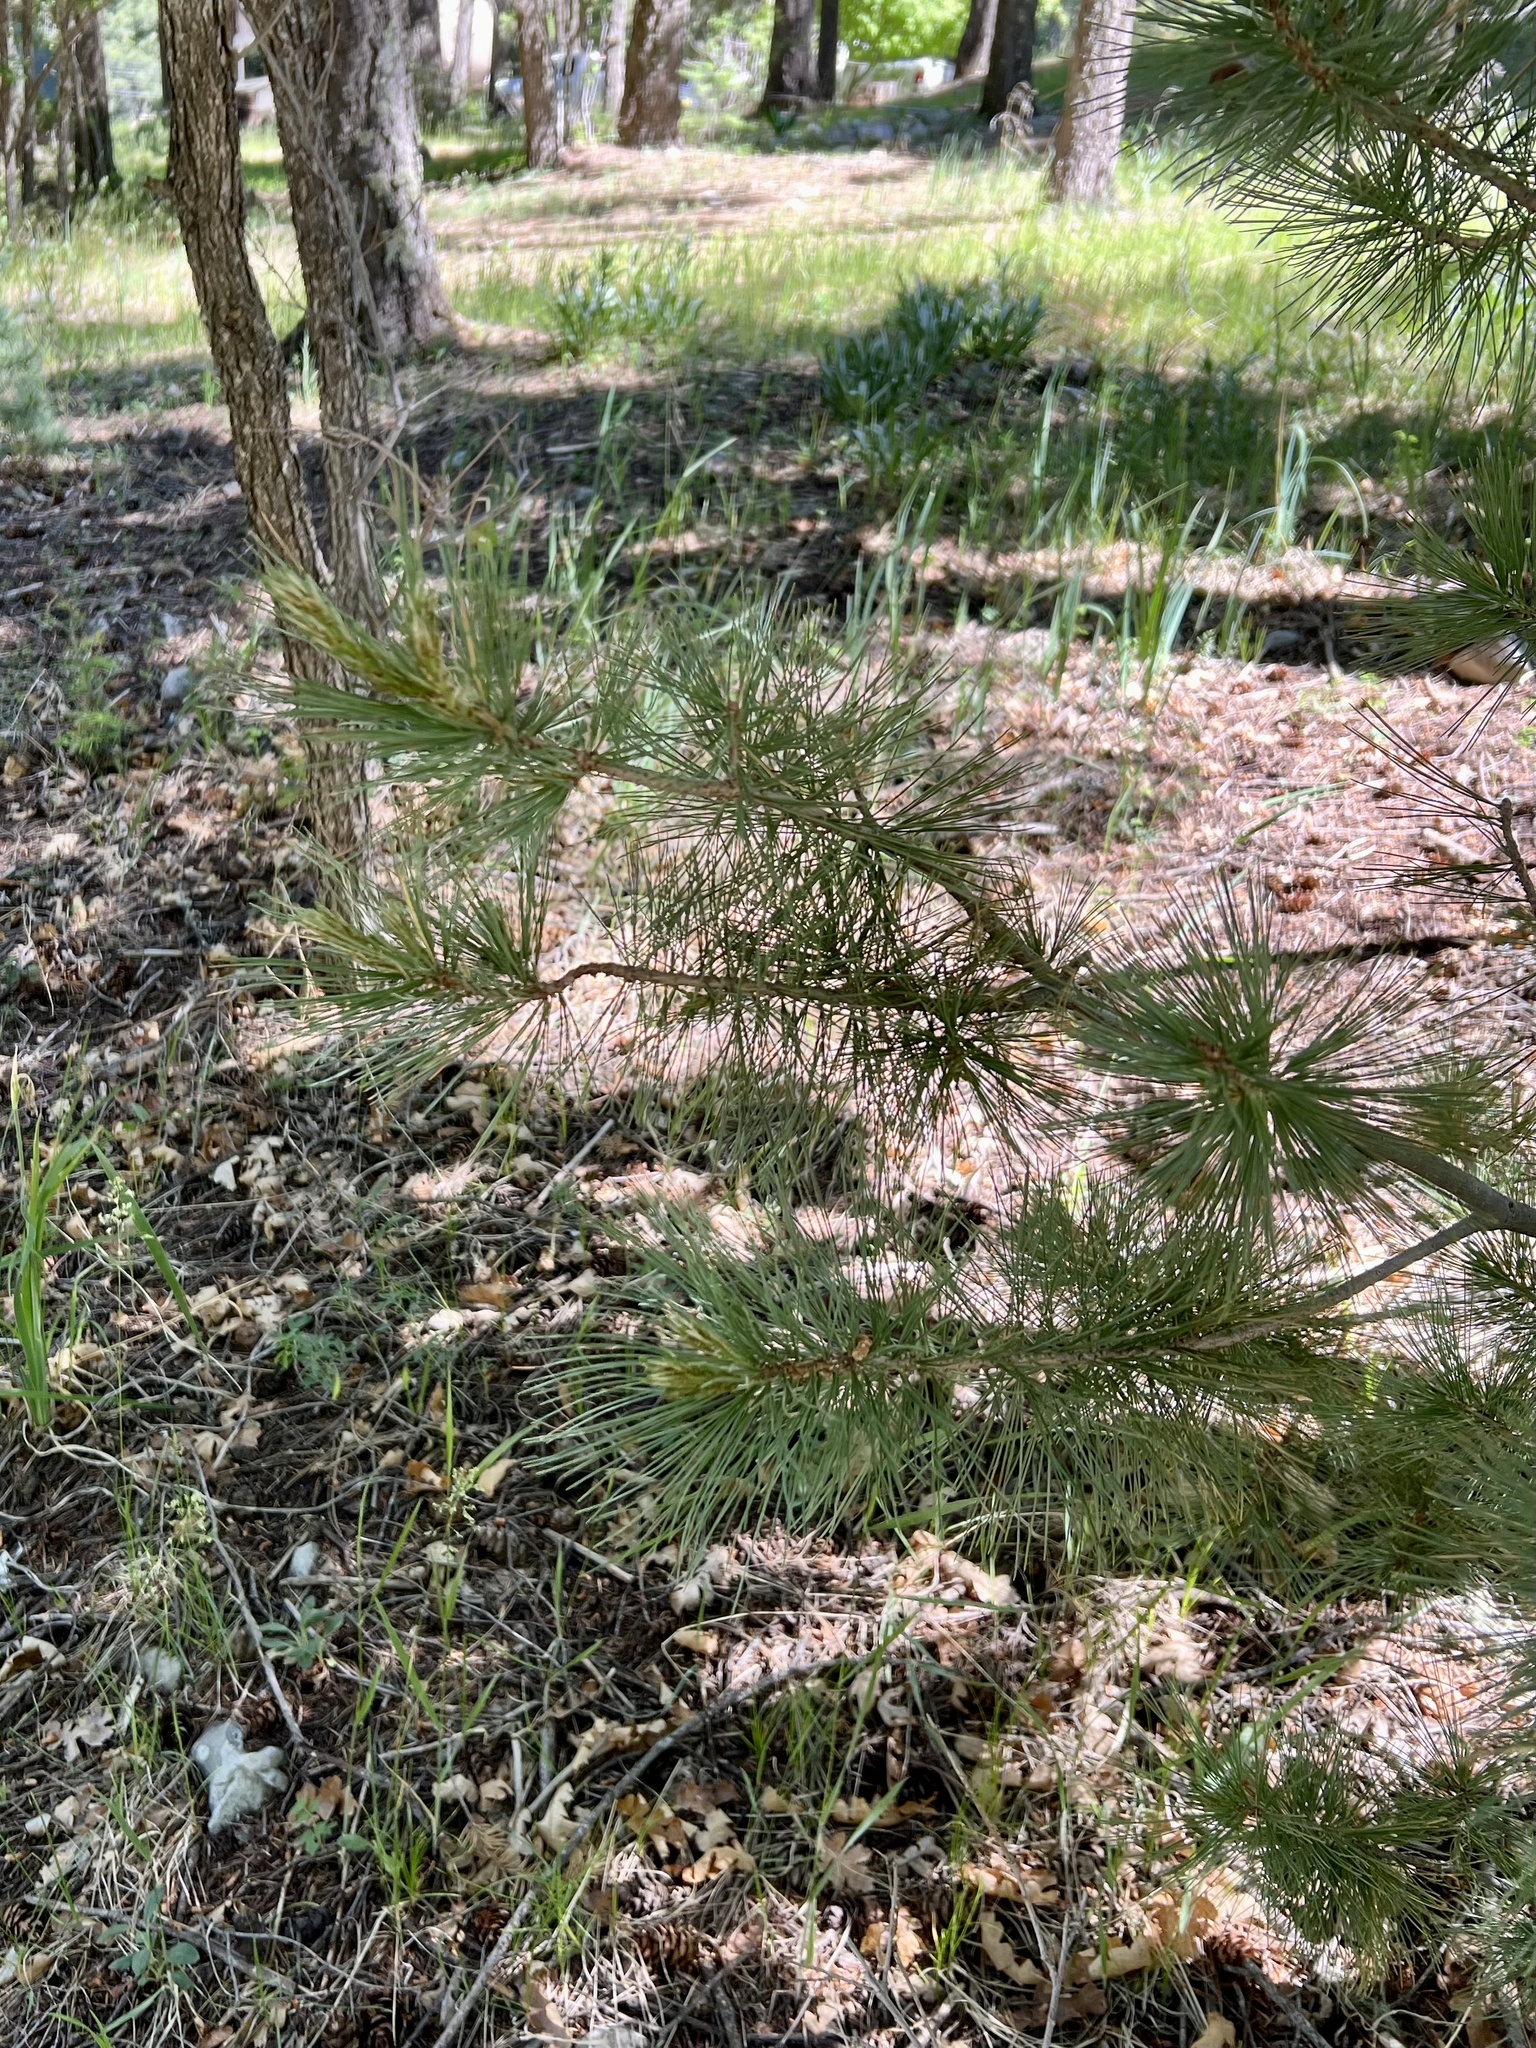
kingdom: Plantae
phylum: Tracheophyta
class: Pinopsida
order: Pinales
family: Pinaceae
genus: Pinus
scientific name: Pinus strobiformis
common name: Southwestern white pine
